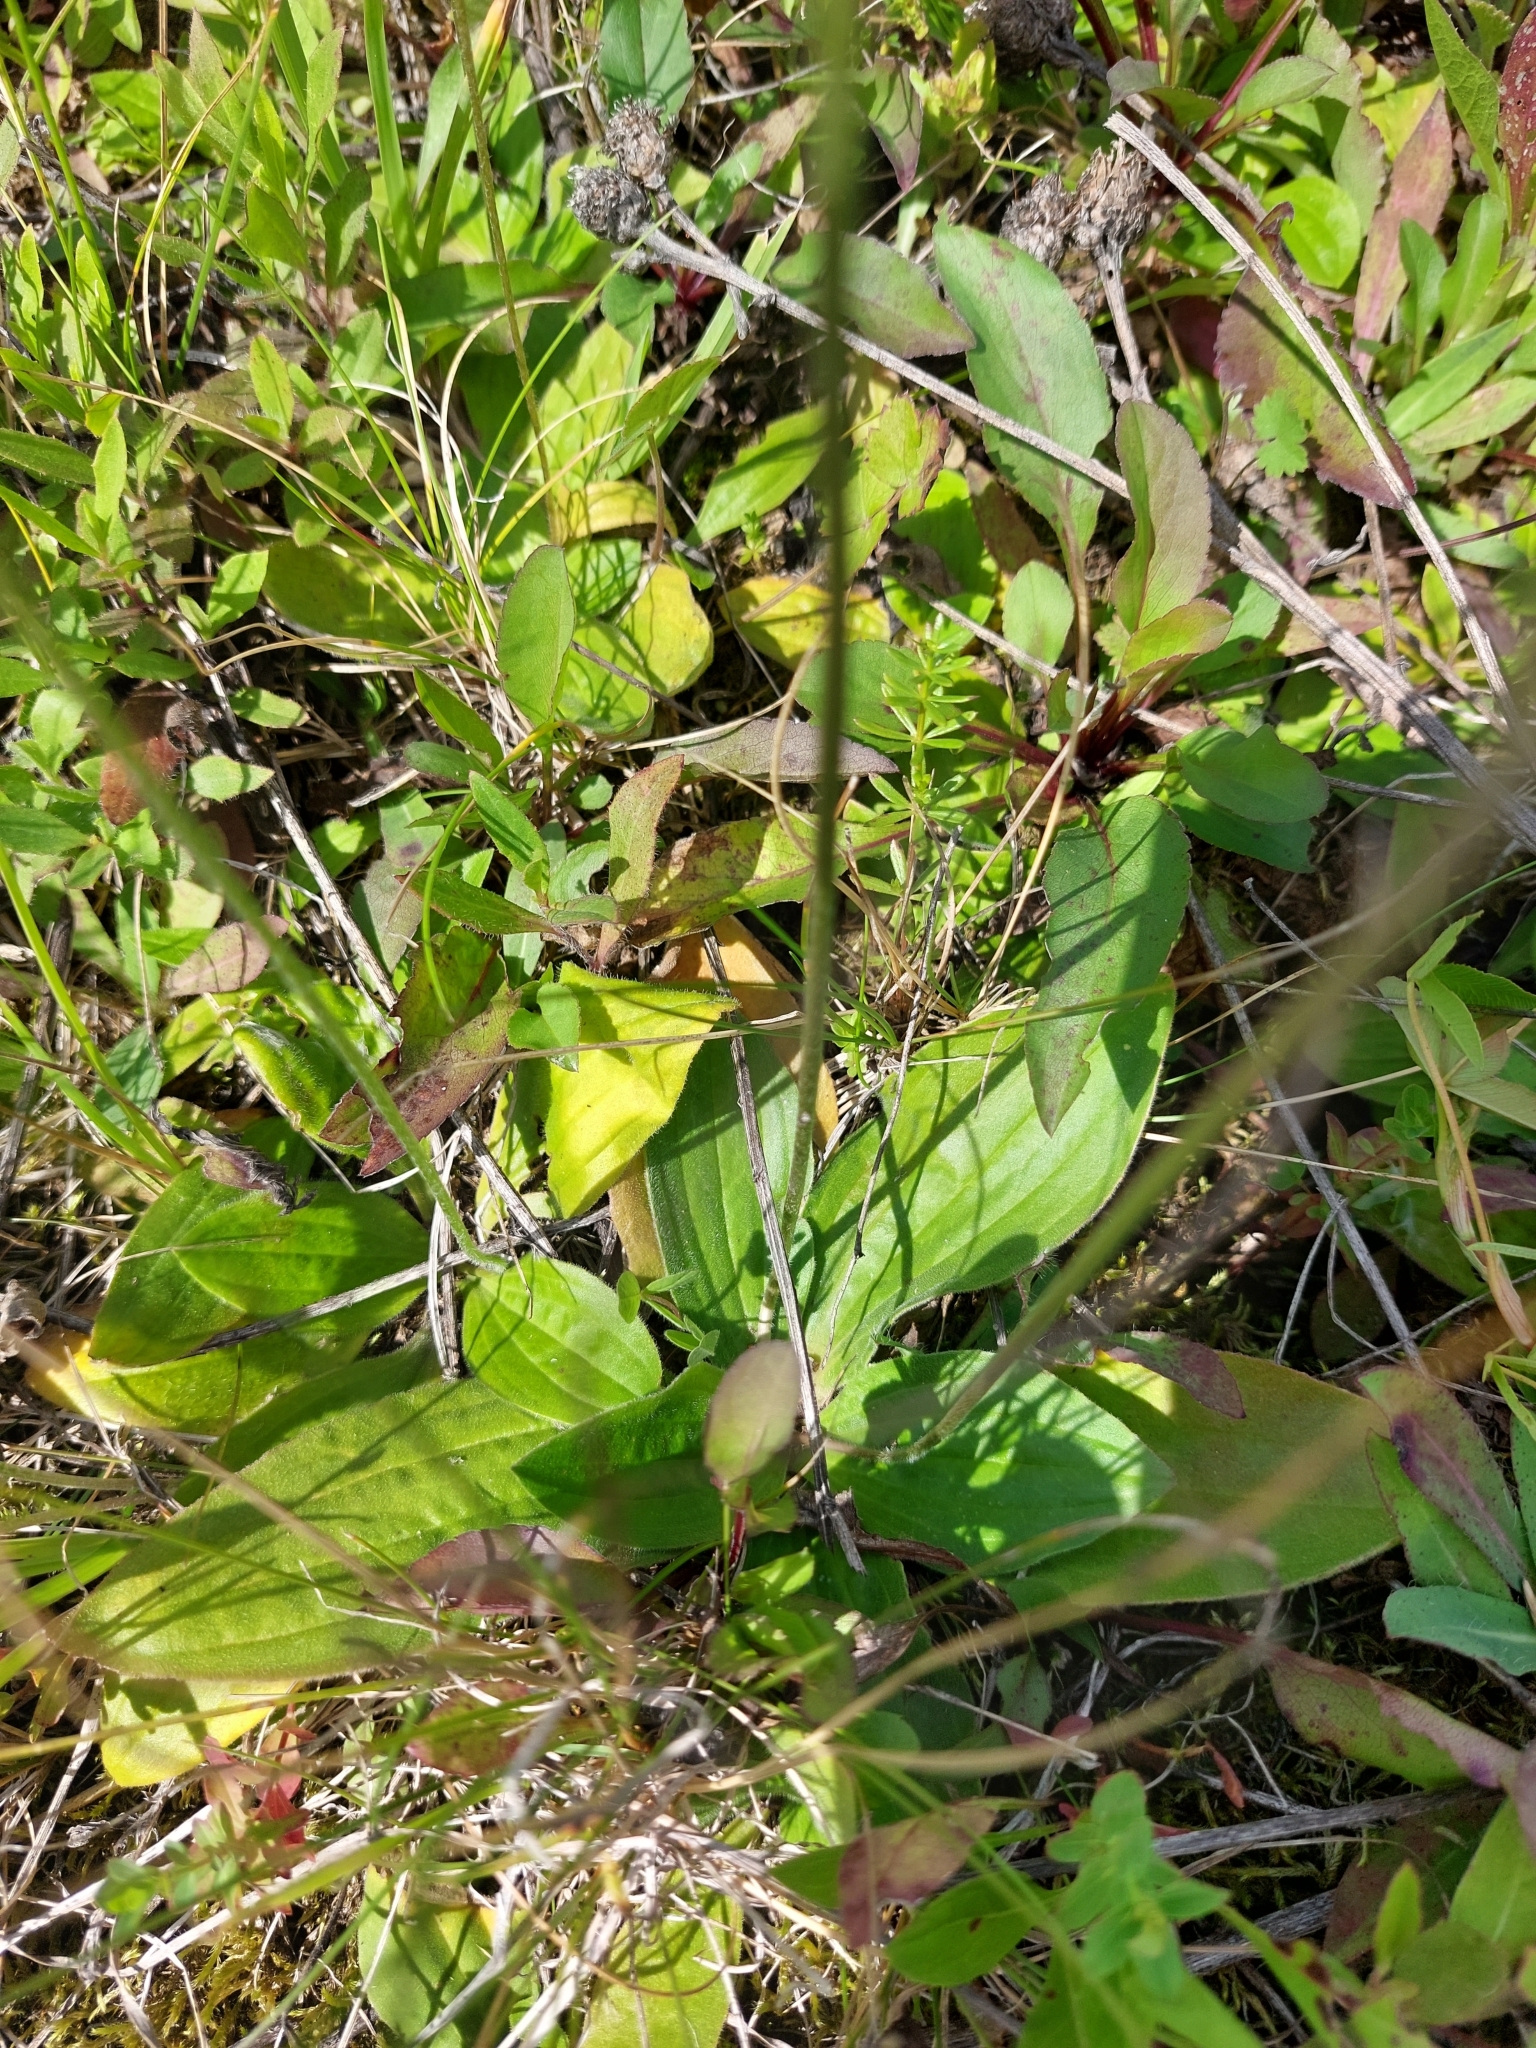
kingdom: Plantae
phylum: Tracheophyta
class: Magnoliopsida
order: Lamiales
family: Plantaginaceae
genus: Plantago
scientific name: Plantago media
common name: Hoary plantain
